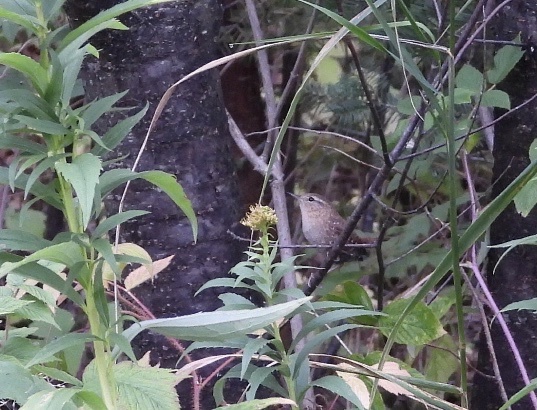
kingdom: Animalia
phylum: Chordata
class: Aves
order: Passeriformes
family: Troglodytidae
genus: Troglodytes
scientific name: Troglodytes hiemalis
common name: Winter wren
